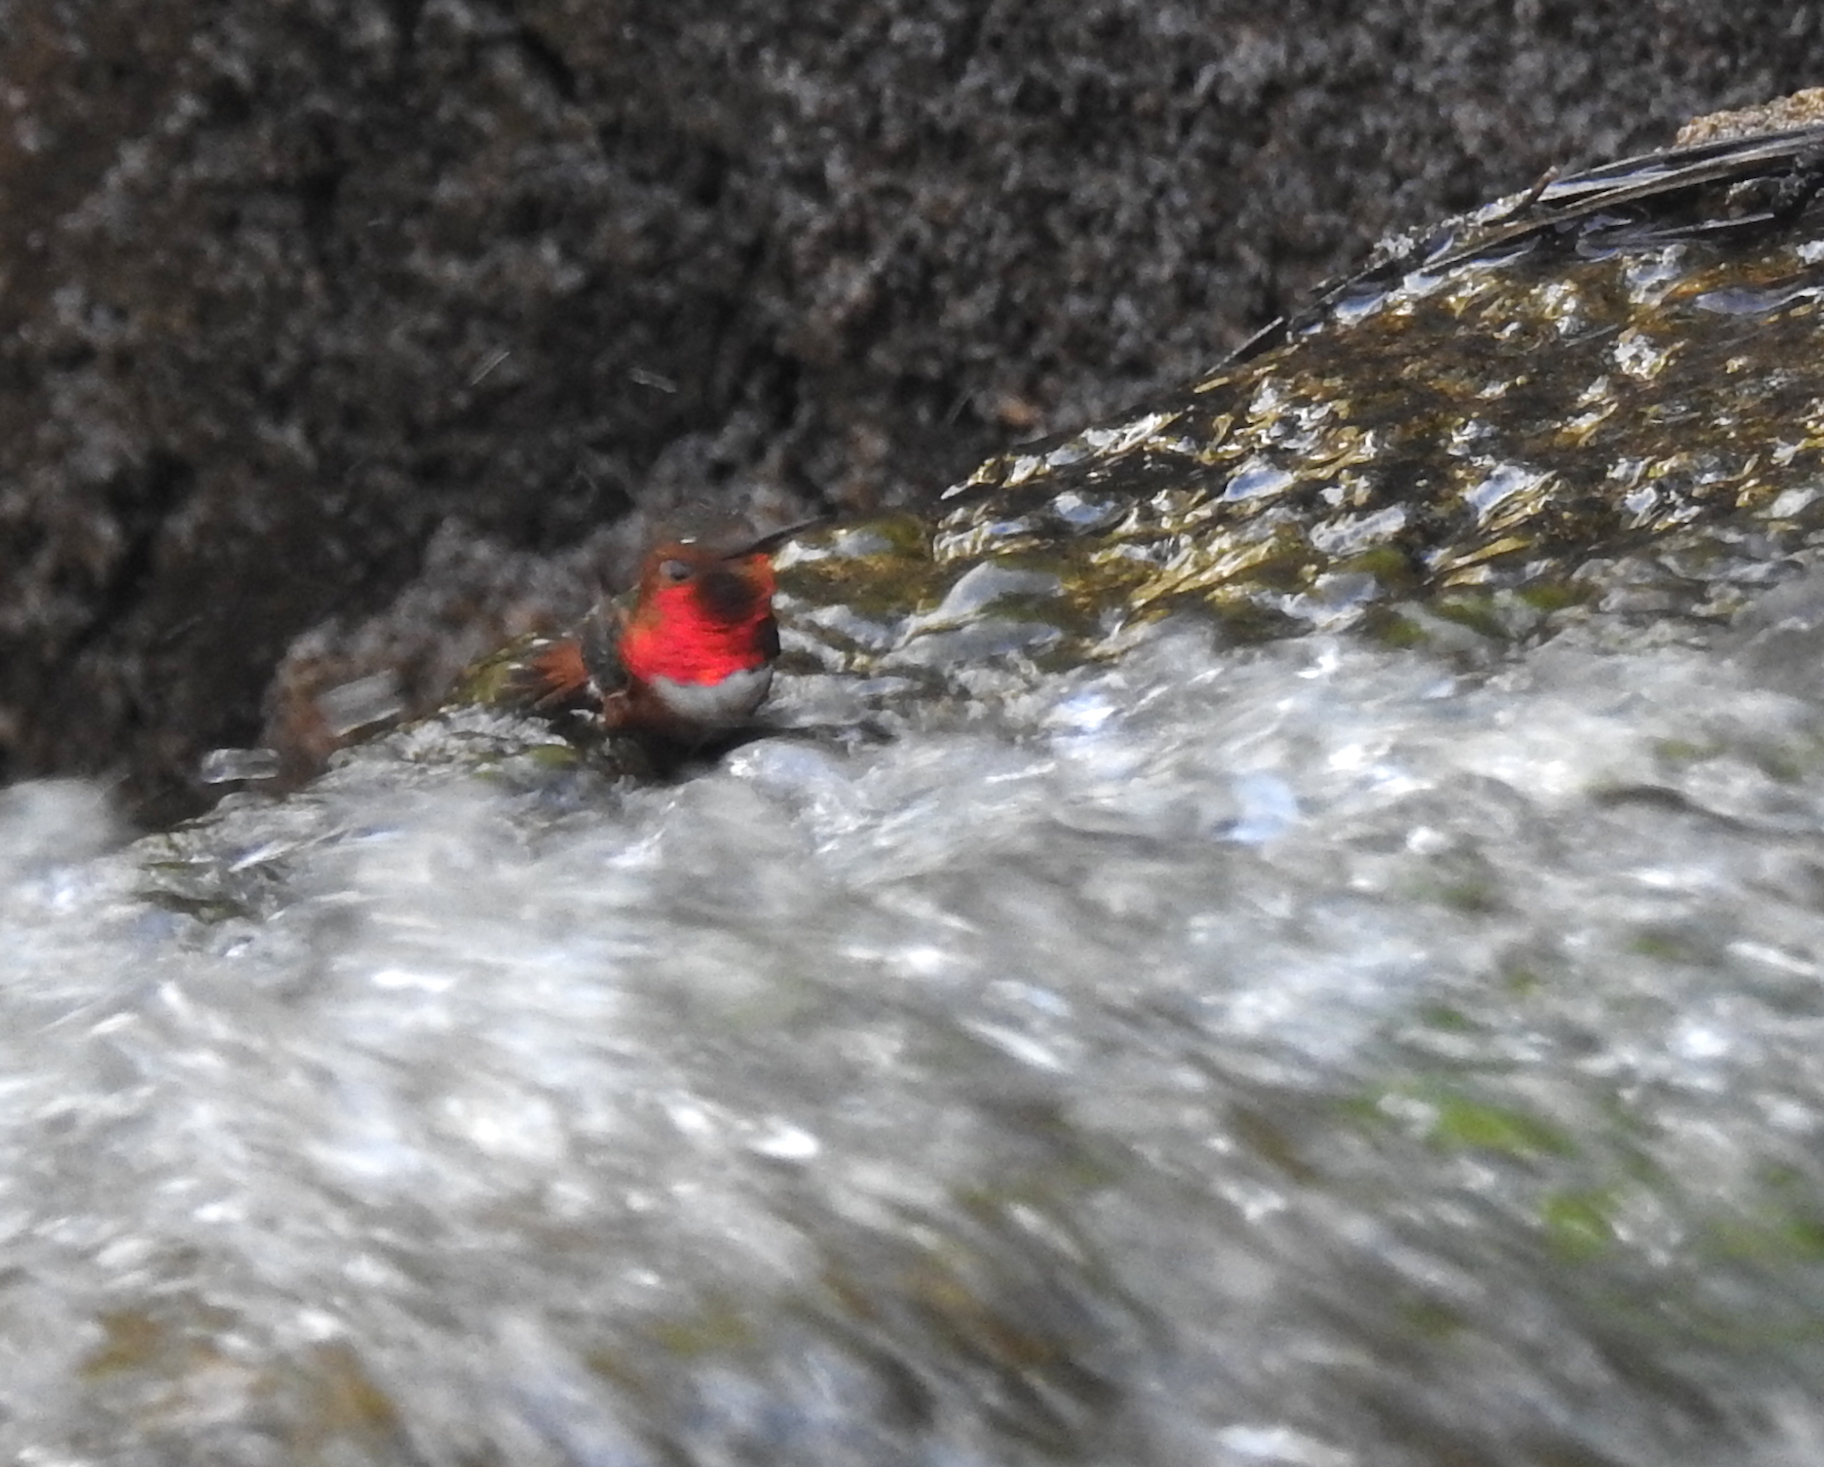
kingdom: Animalia
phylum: Chordata
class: Aves
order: Apodiformes
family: Trochilidae
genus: Selasphorus
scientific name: Selasphorus sasin
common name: Allen's hummingbird
